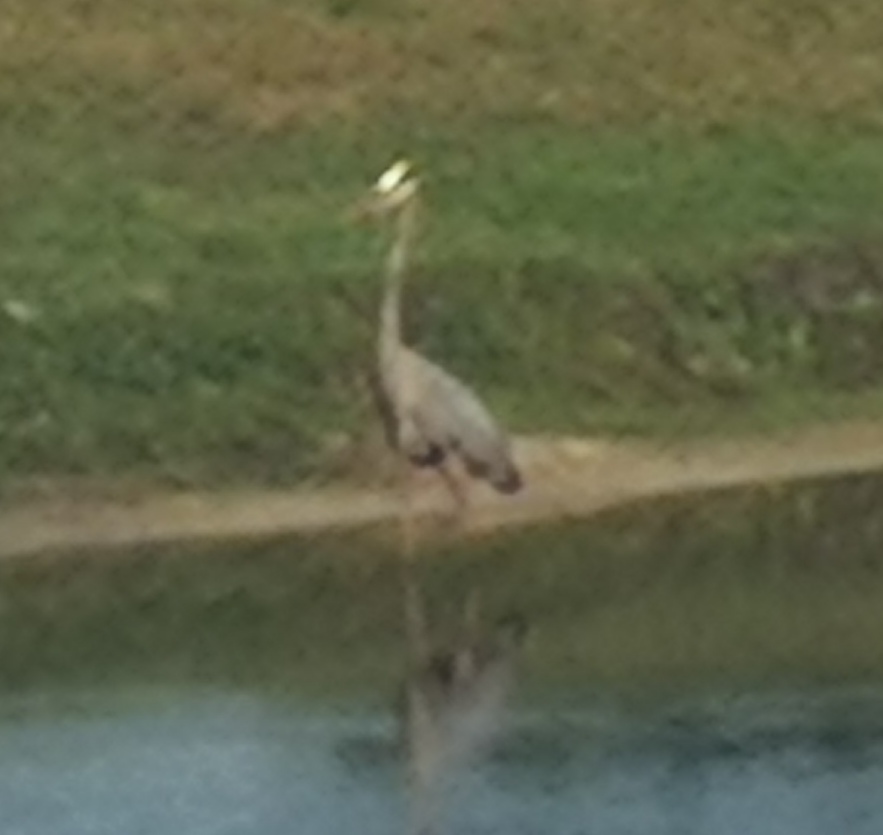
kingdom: Animalia
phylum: Chordata
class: Aves
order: Pelecaniformes
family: Ardeidae
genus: Ardea
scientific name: Ardea herodias
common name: Great blue heron
